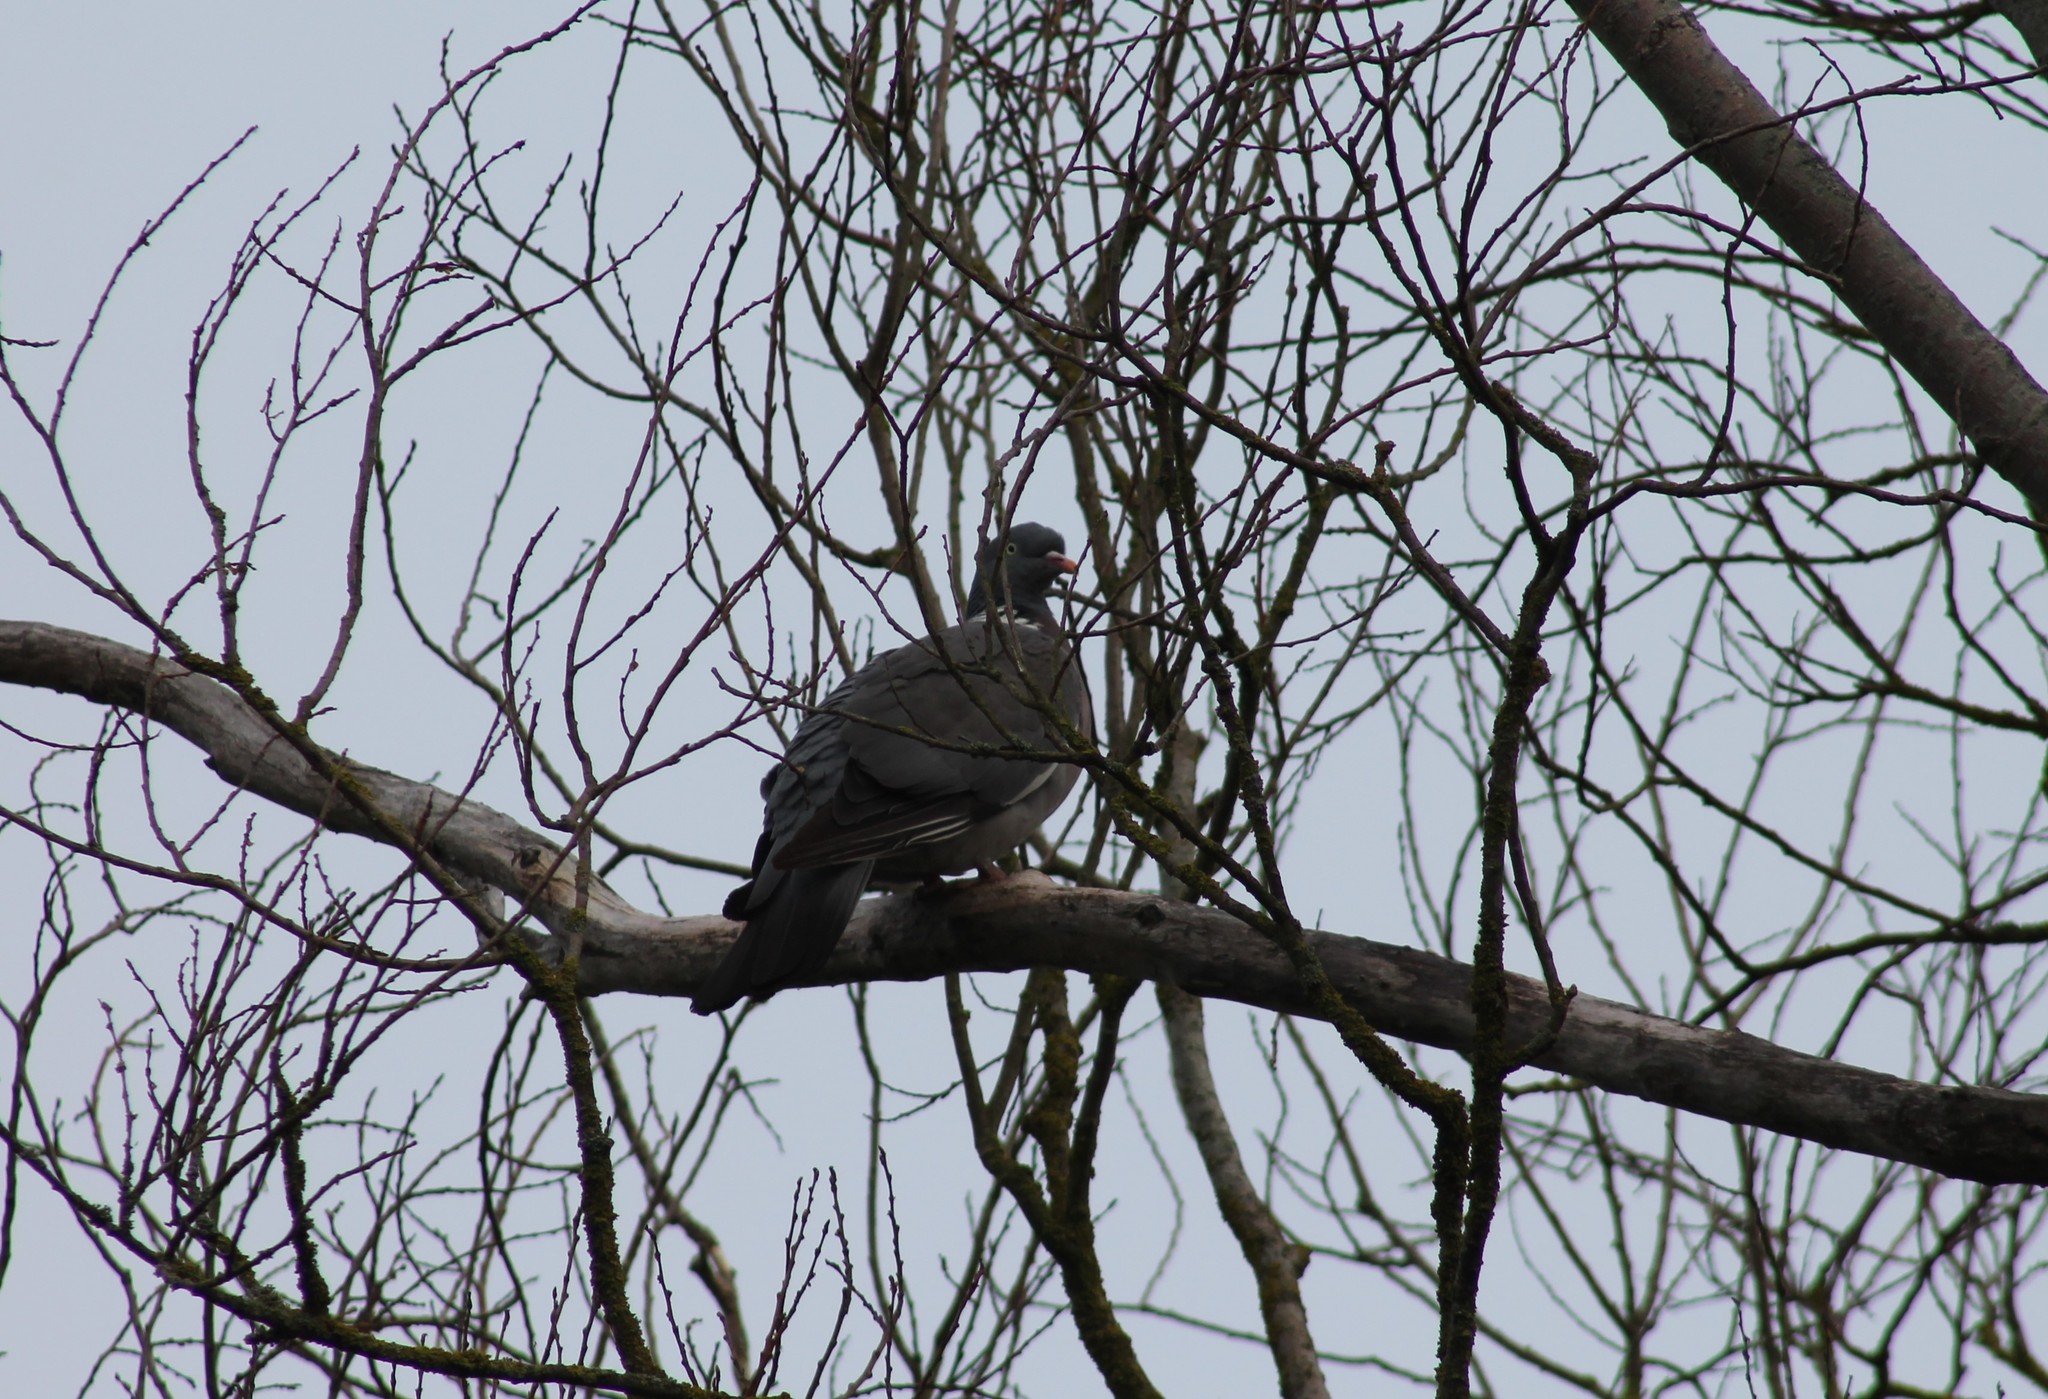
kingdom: Animalia
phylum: Chordata
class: Aves
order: Columbiformes
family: Columbidae
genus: Columba
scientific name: Columba palumbus
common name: Common wood pigeon
